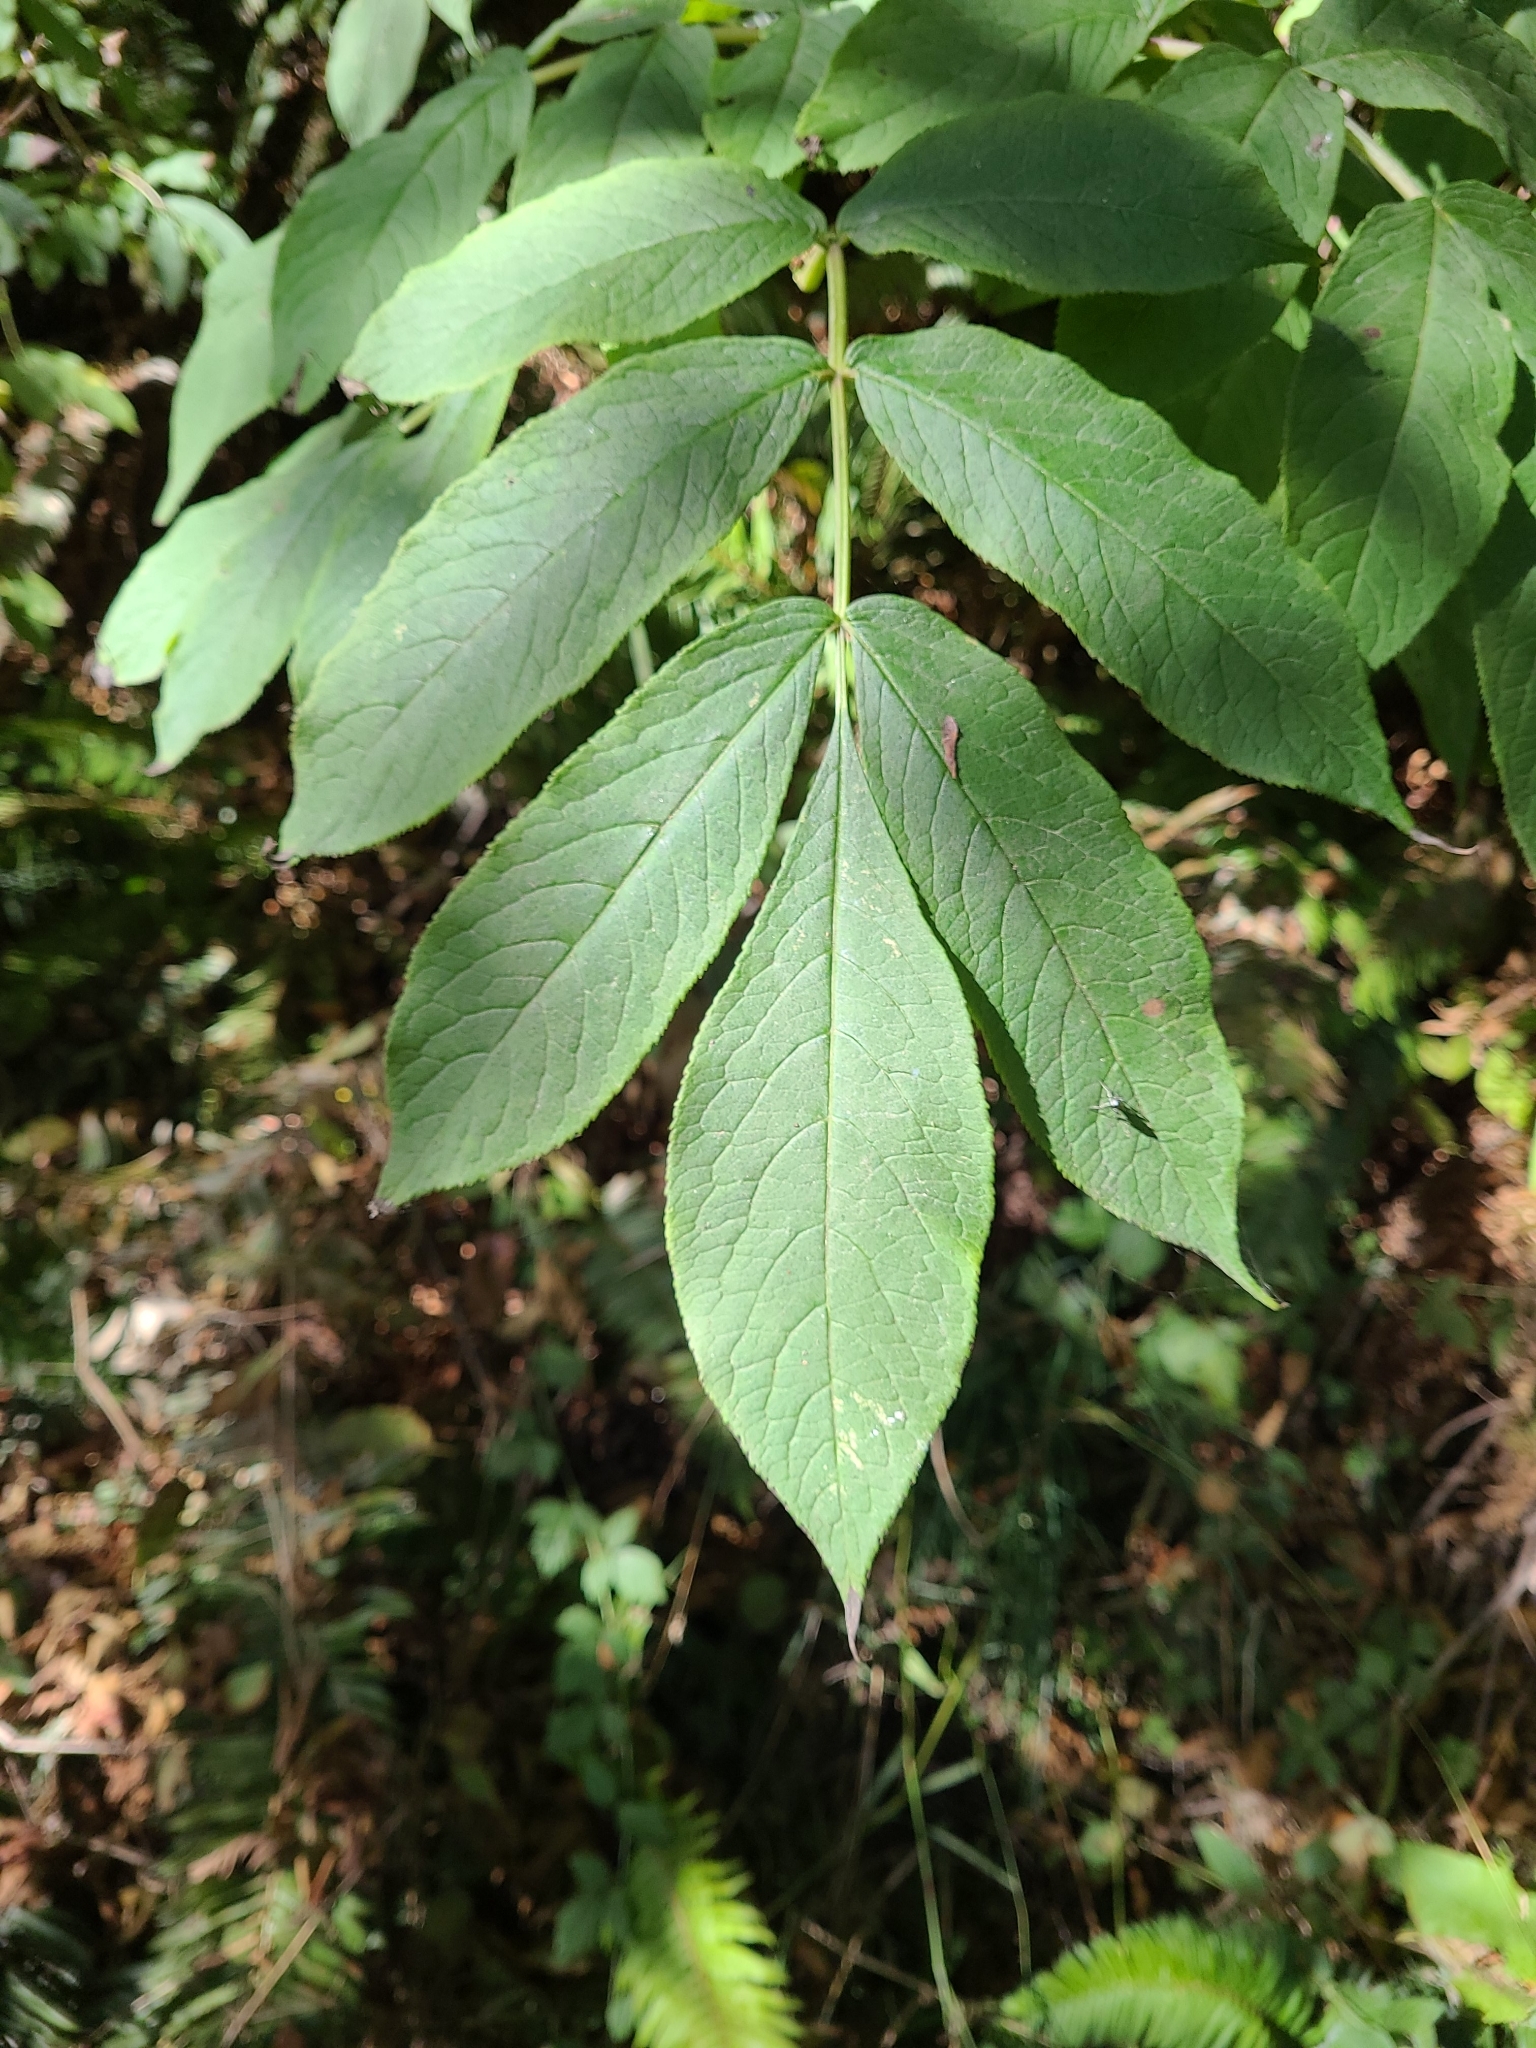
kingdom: Plantae
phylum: Tracheophyta
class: Magnoliopsida
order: Dipsacales
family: Viburnaceae
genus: Sambucus
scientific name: Sambucus racemosa
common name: Red-berried elder
